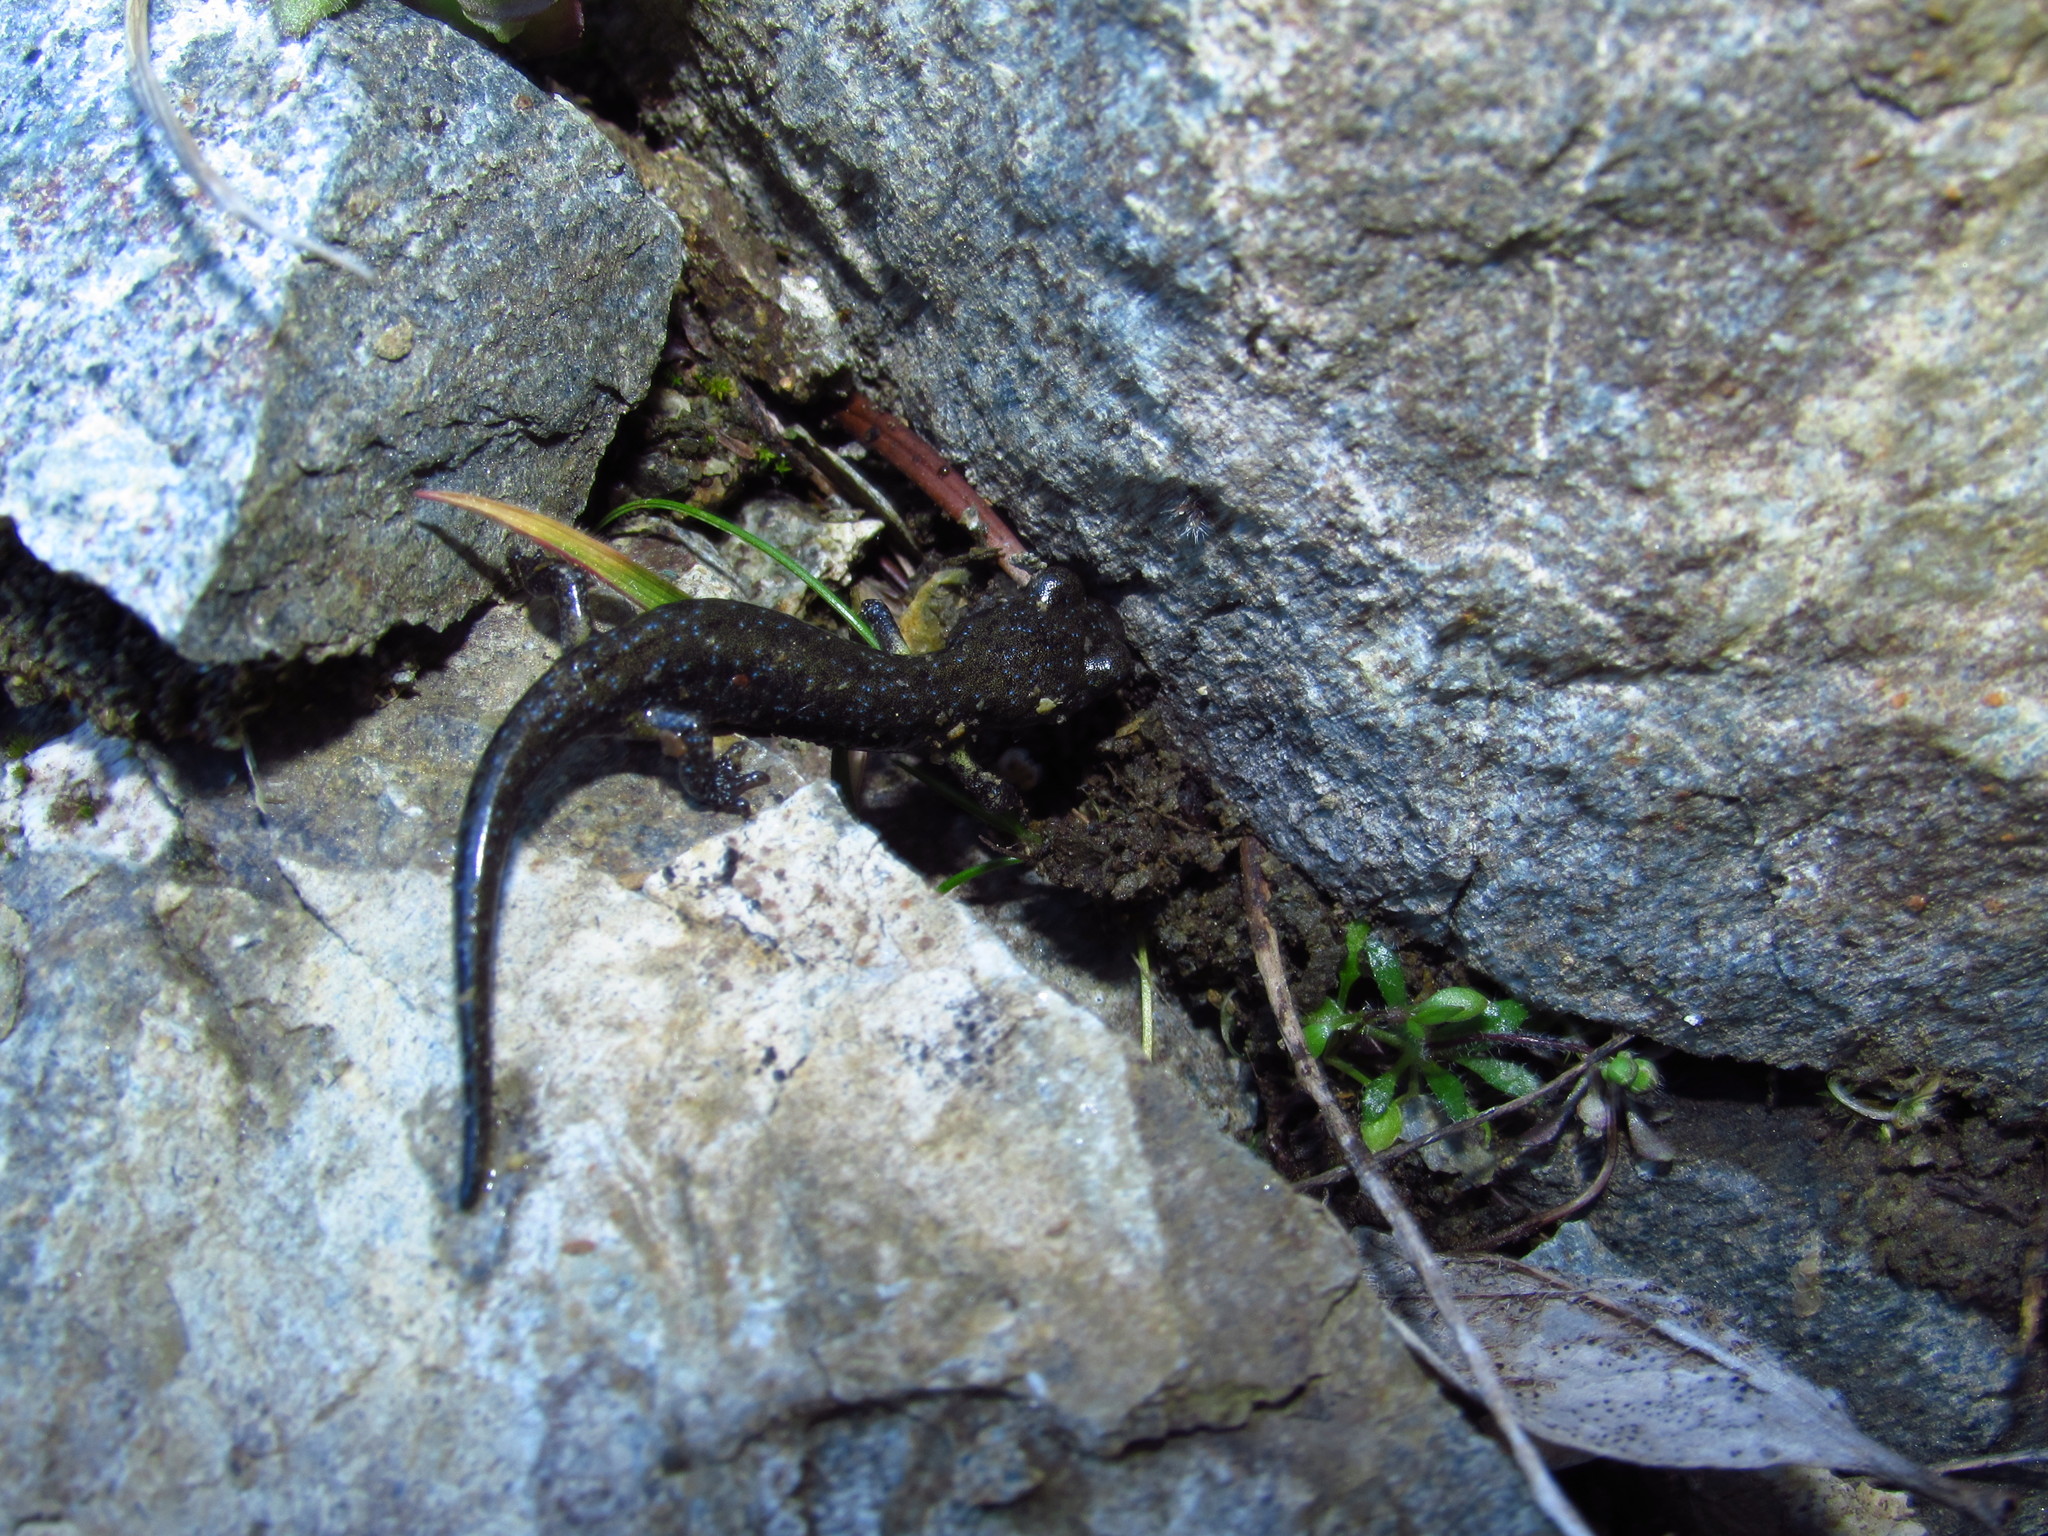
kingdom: Animalia
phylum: Chordata
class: Amphibia
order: Caudata
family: Plethodontidae
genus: Aneides
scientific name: Aneides klamathensis
